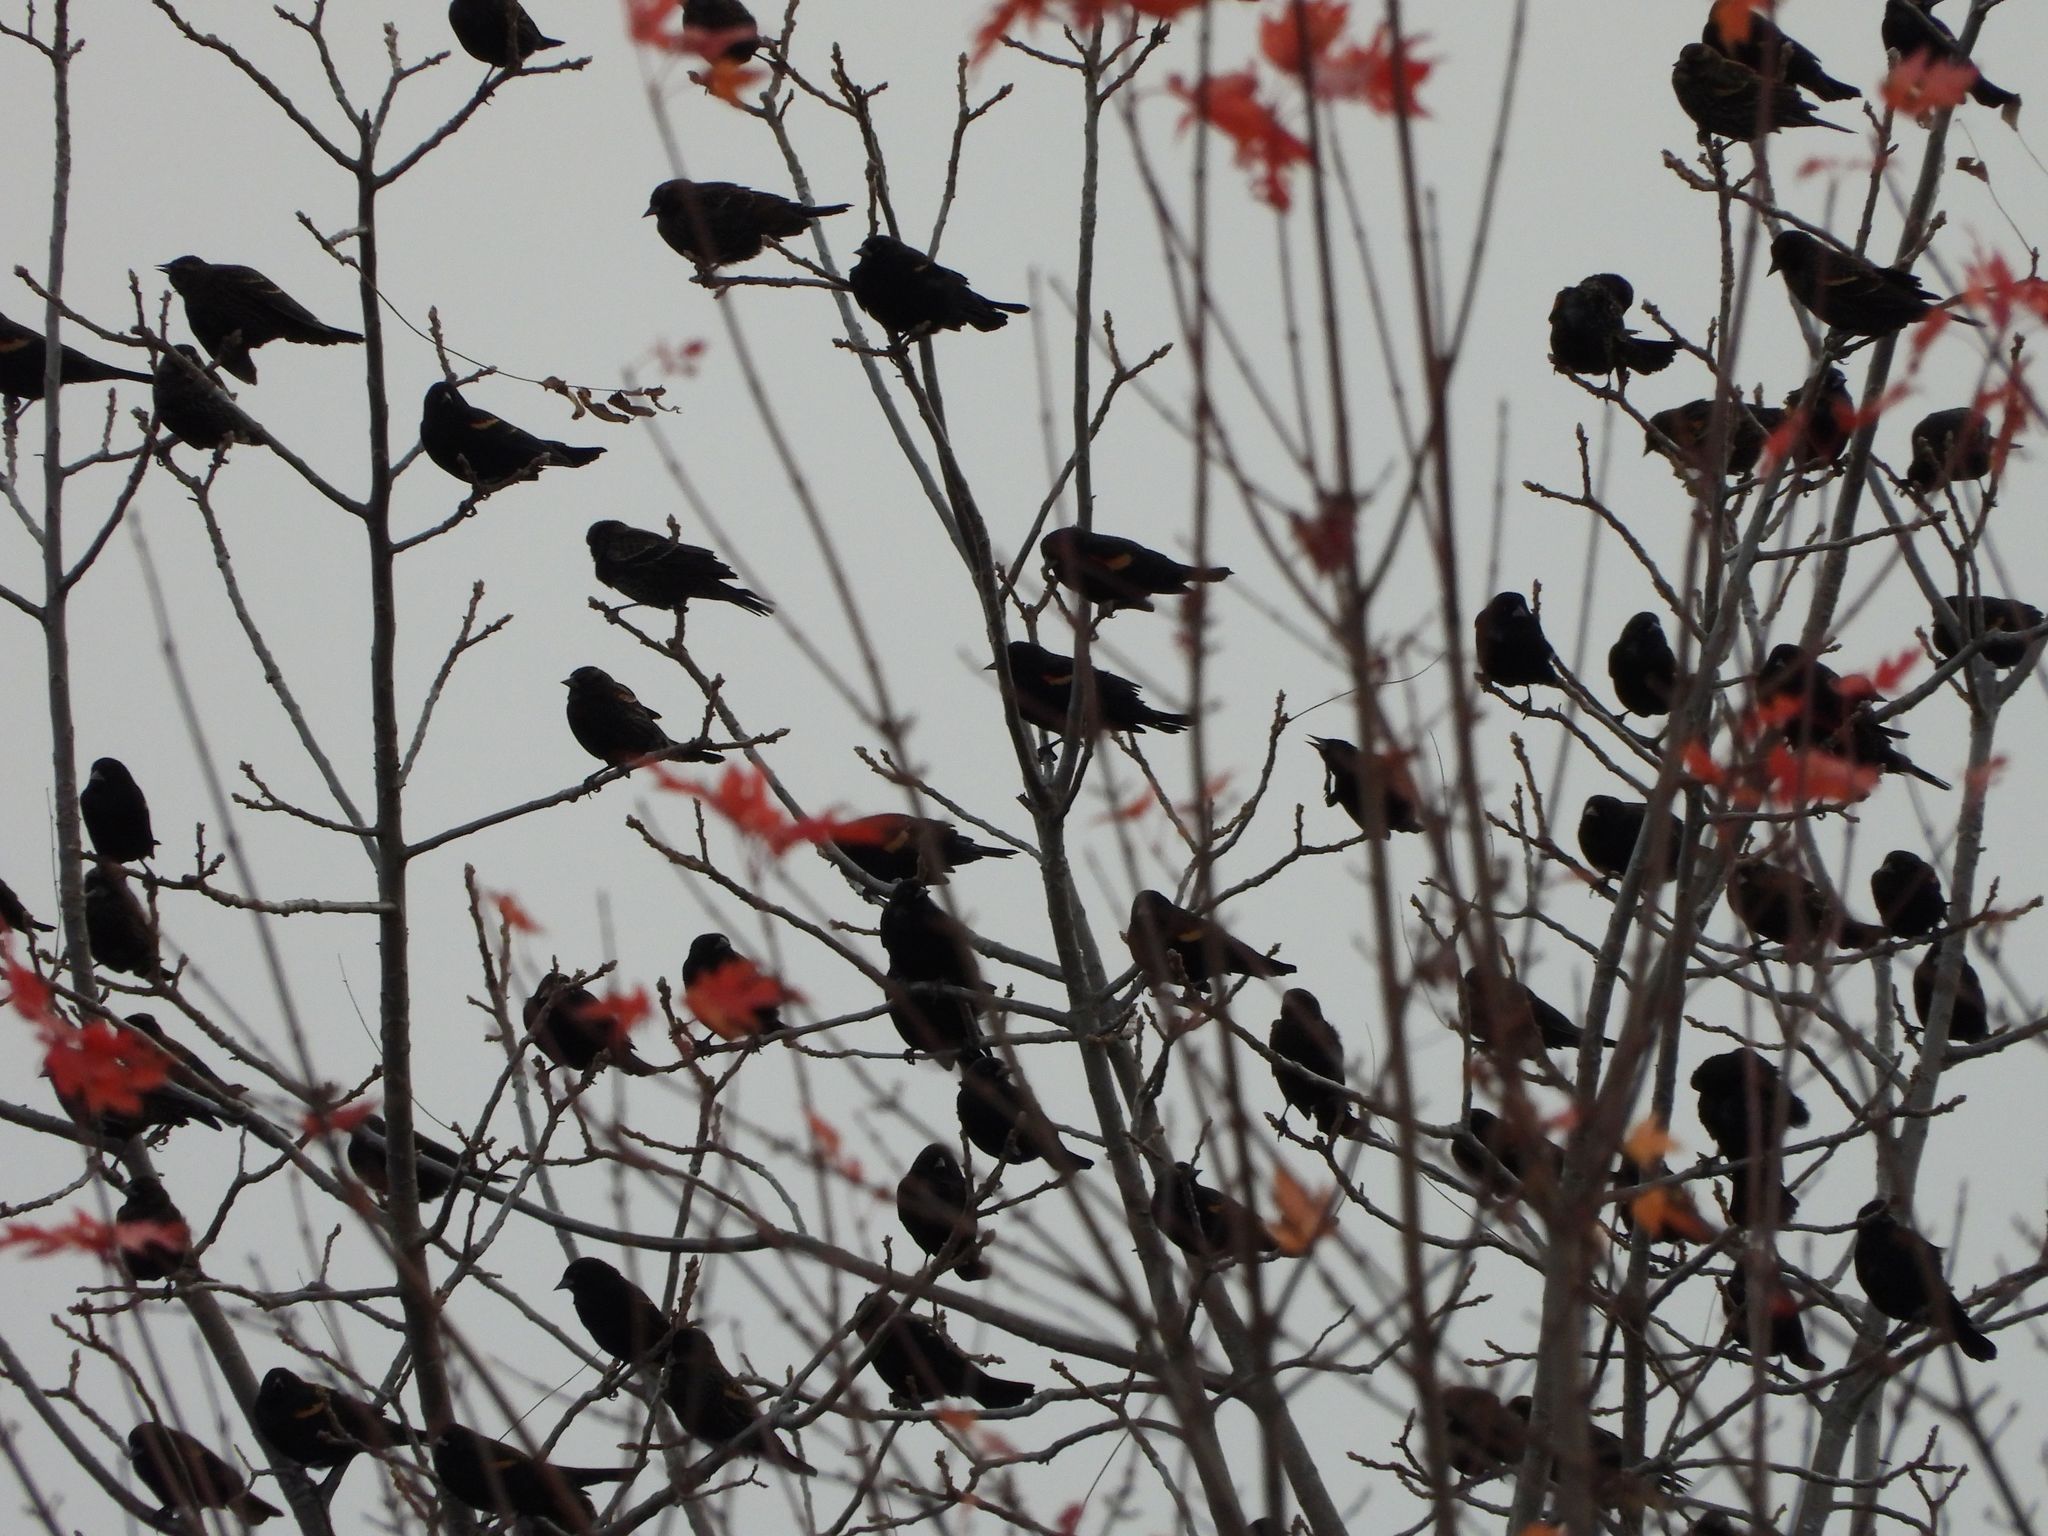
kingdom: Animalia
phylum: Chordata
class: Aves
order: Passeriformes
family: Icteridae
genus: Agelaius
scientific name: Agelaius phoeniceus
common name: Red-winged blackbird
